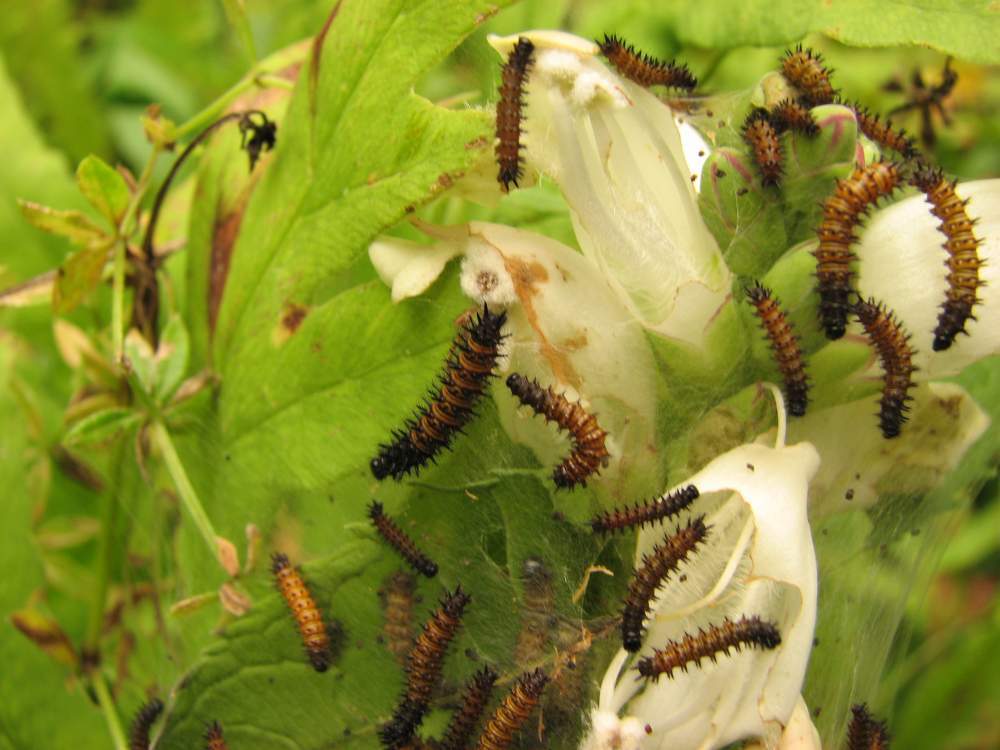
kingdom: Animalia
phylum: Arthropoda
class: Insecta
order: Lepidoptera
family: Nymphalidae
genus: Euphydryas
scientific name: Euphydryas phaeton
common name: Baltimore checkerspot
